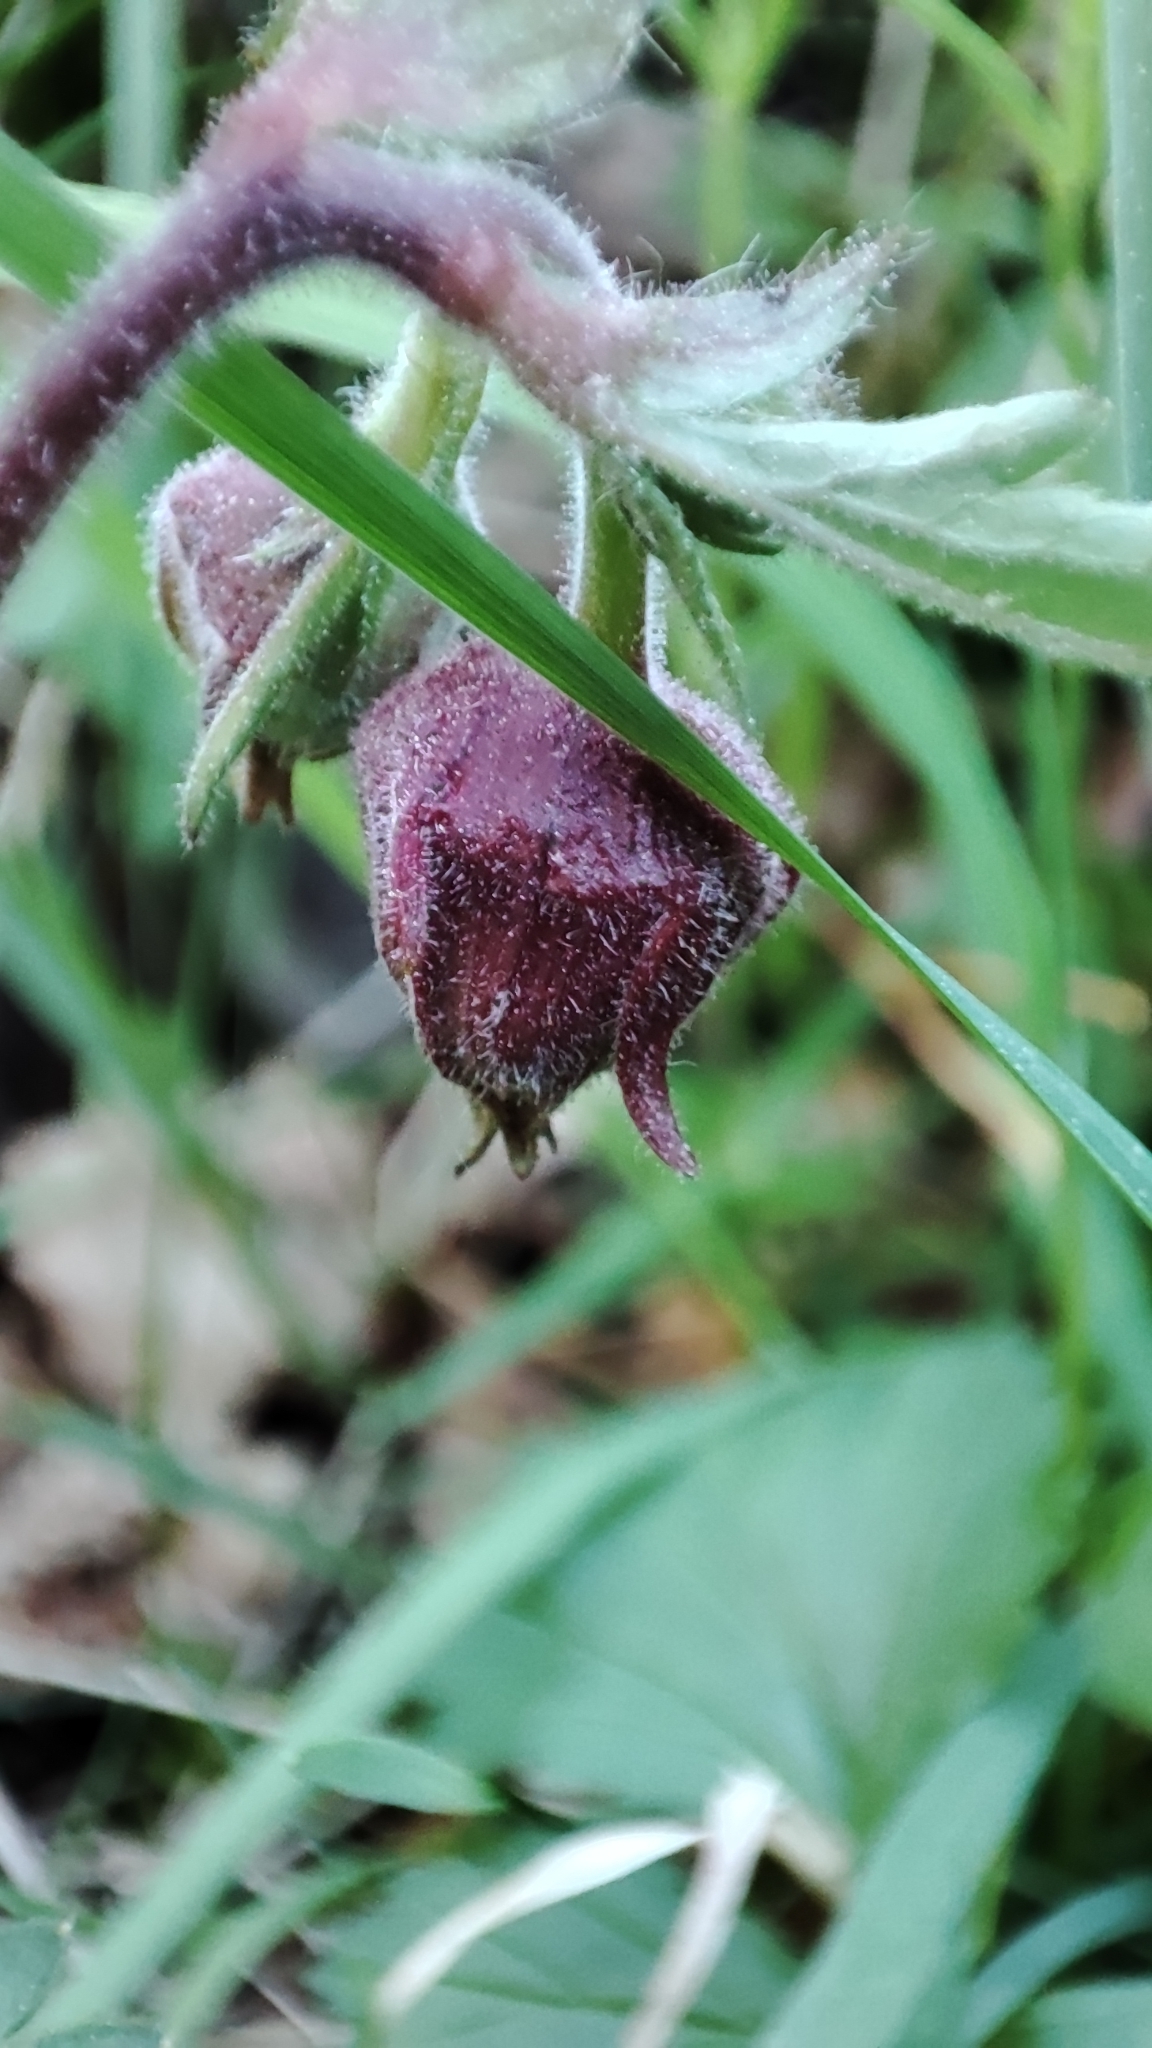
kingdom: Plantae
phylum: Tracheophyta
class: Magnoliopsida
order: Rosales
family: Rosaceae
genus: Geum
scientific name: Geum rivale
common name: Water avens
